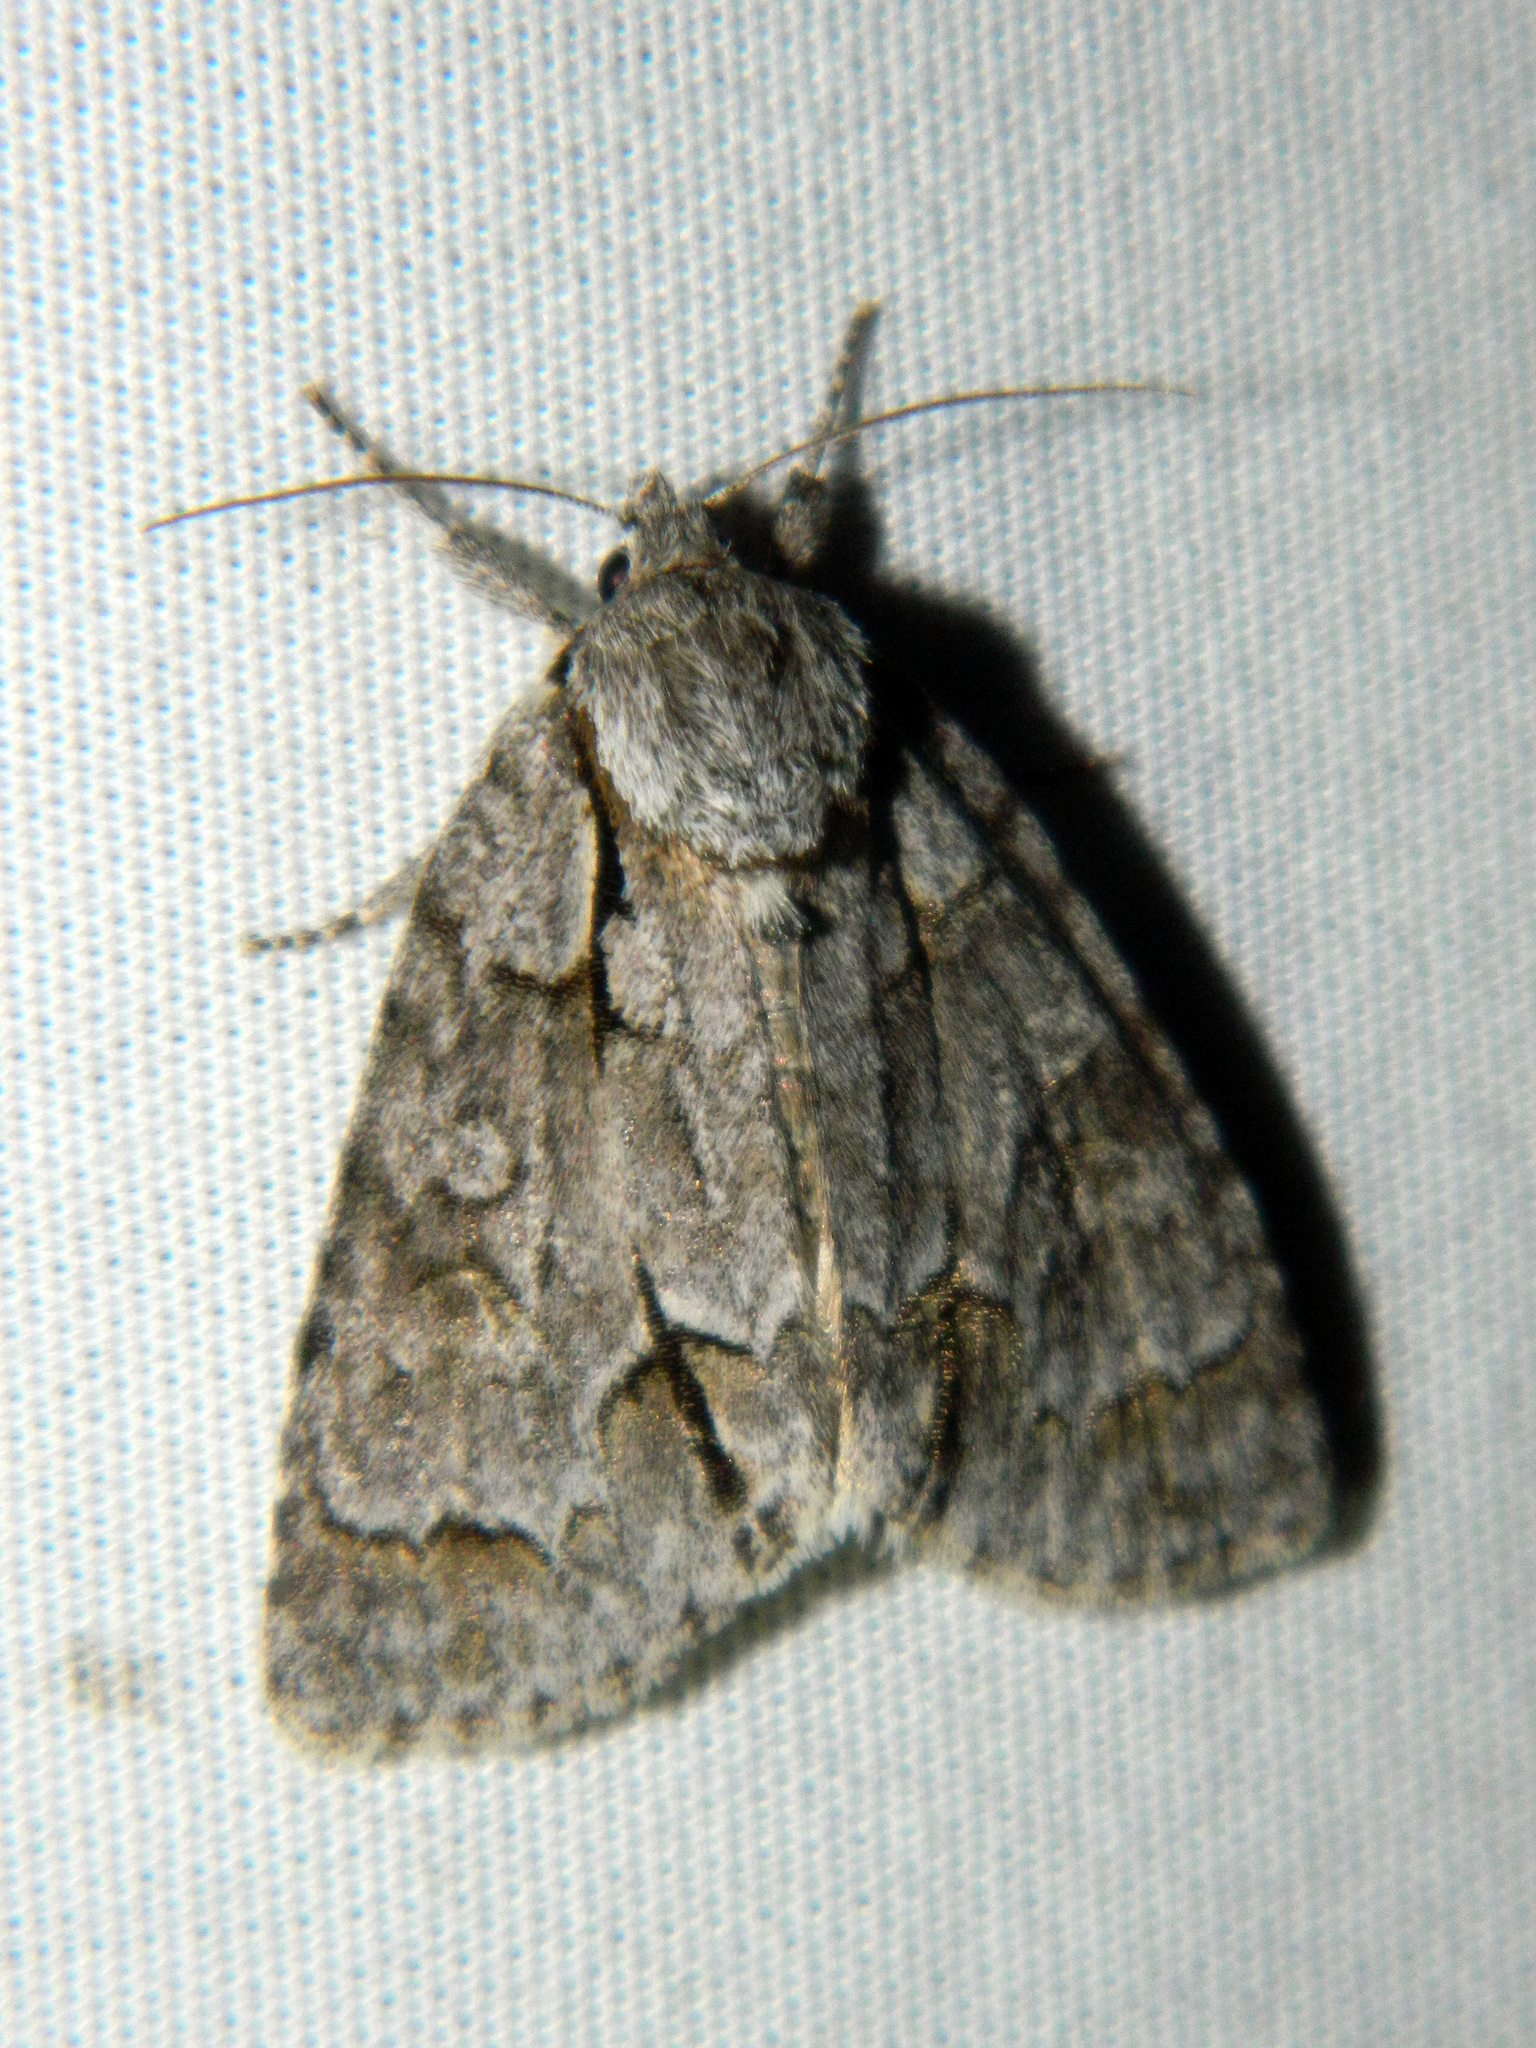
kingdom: Animalia
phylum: Arthropoda
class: Insecta
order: Lepidoptera
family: Noctuidae
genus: Acronicta
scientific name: Acronicta grisea
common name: Gray dagger
